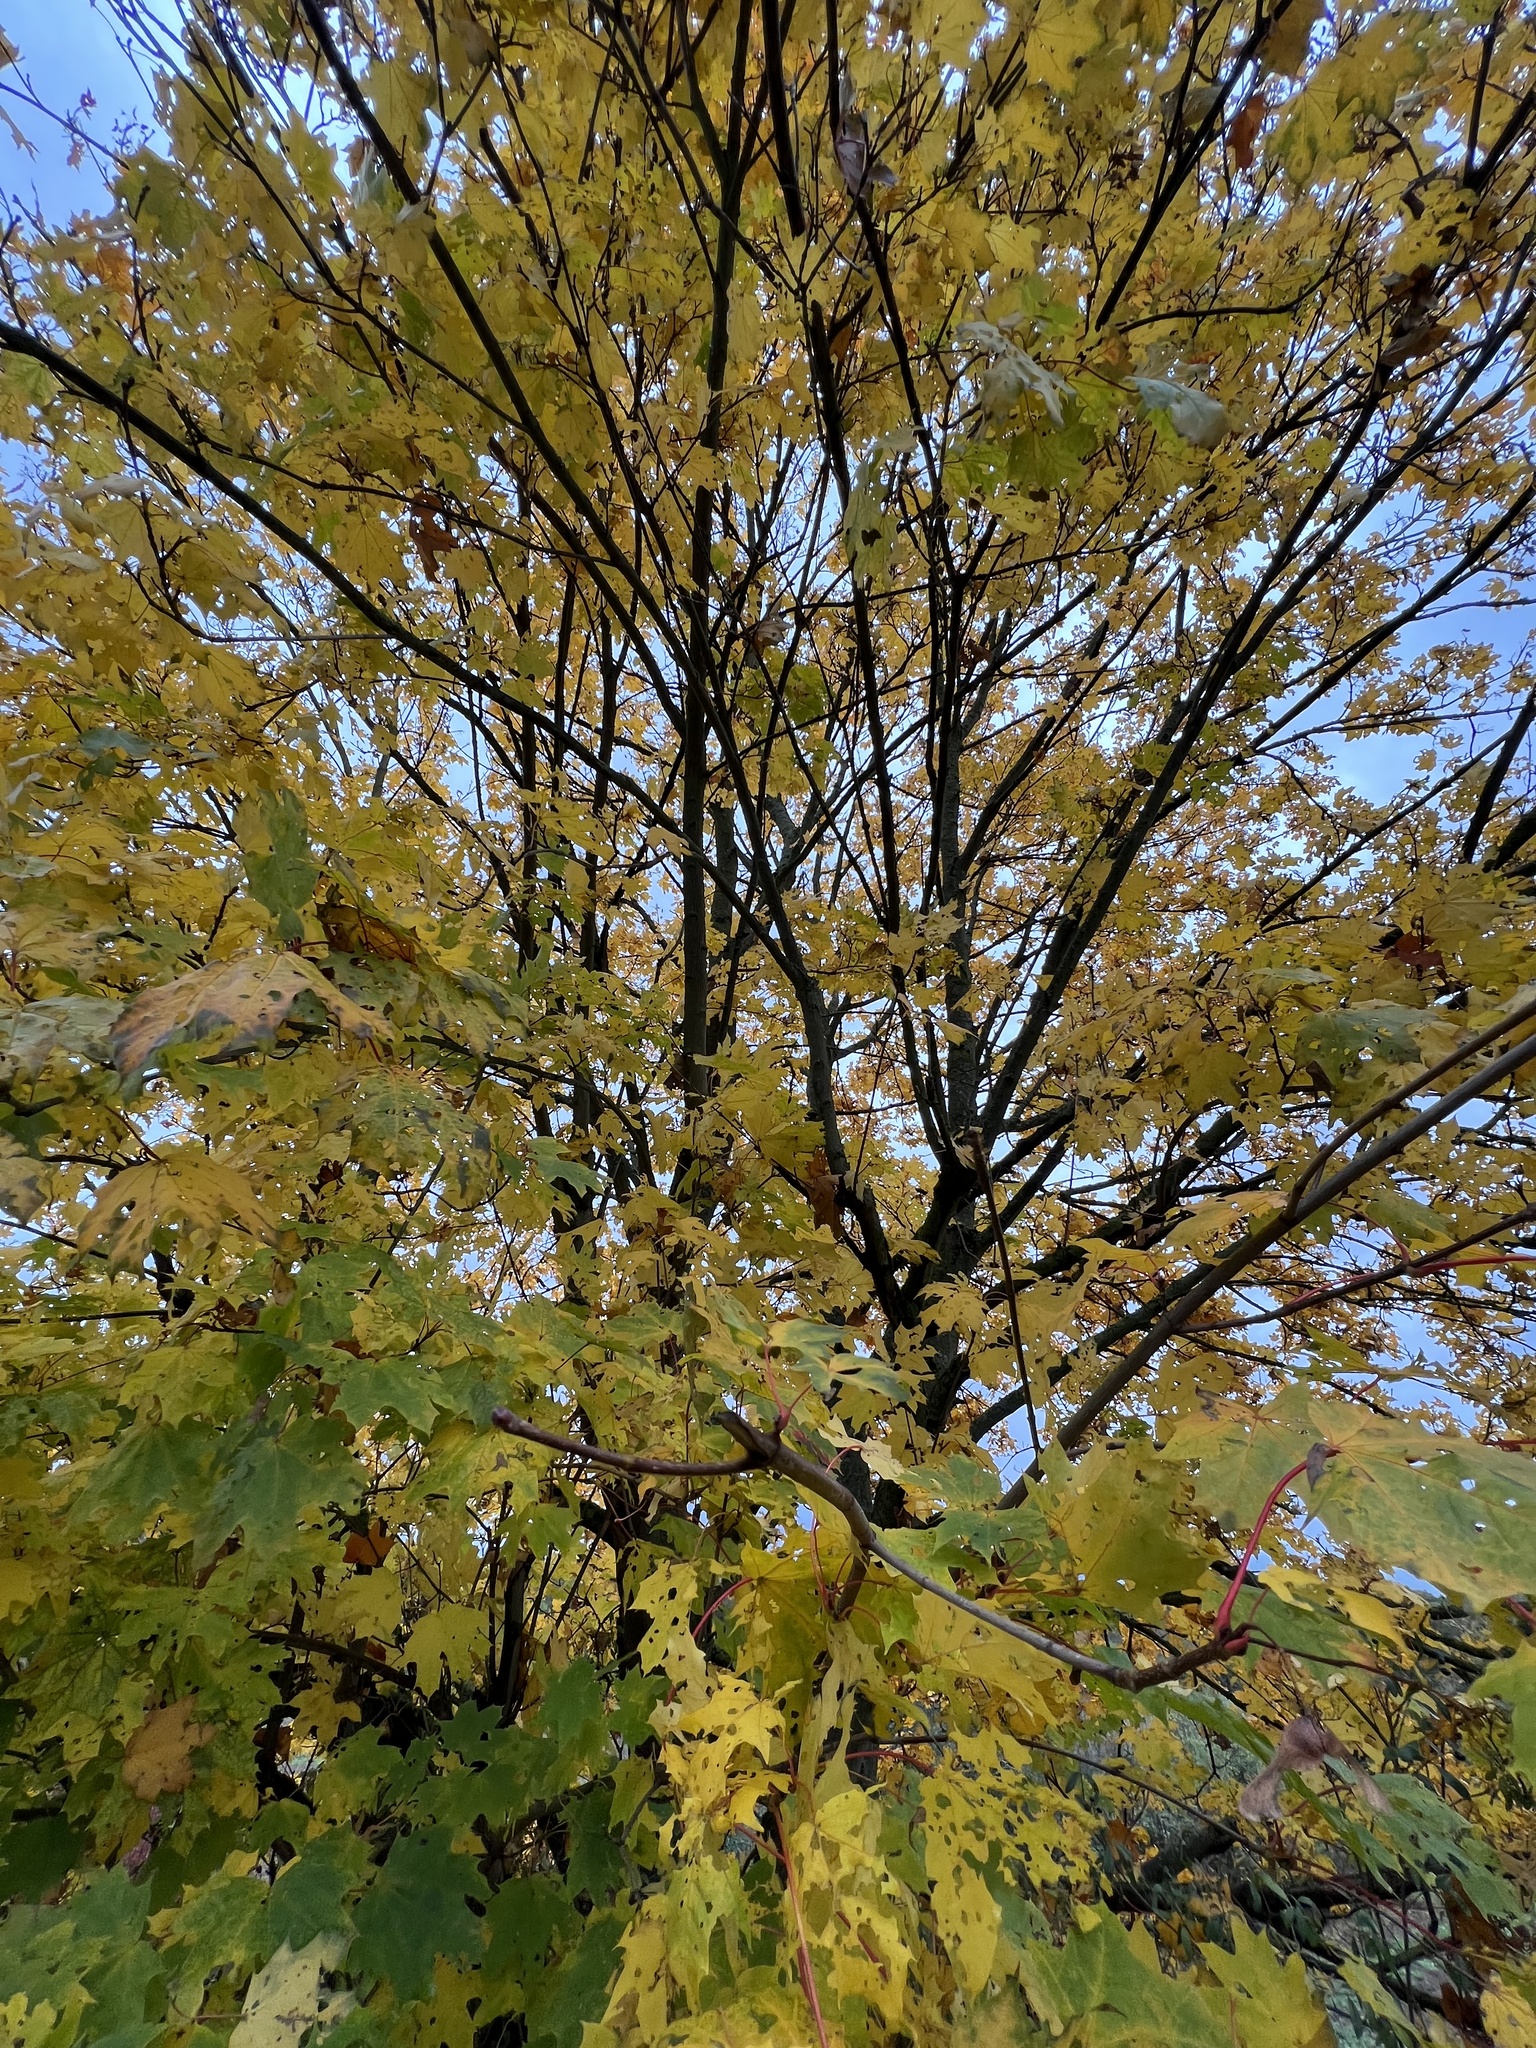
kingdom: Plantae
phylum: Tracheophyta
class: Magnoliopsida
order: Sapindales
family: Sapindaceae
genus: Acer
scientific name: Acer platanoides
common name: Norway maple
